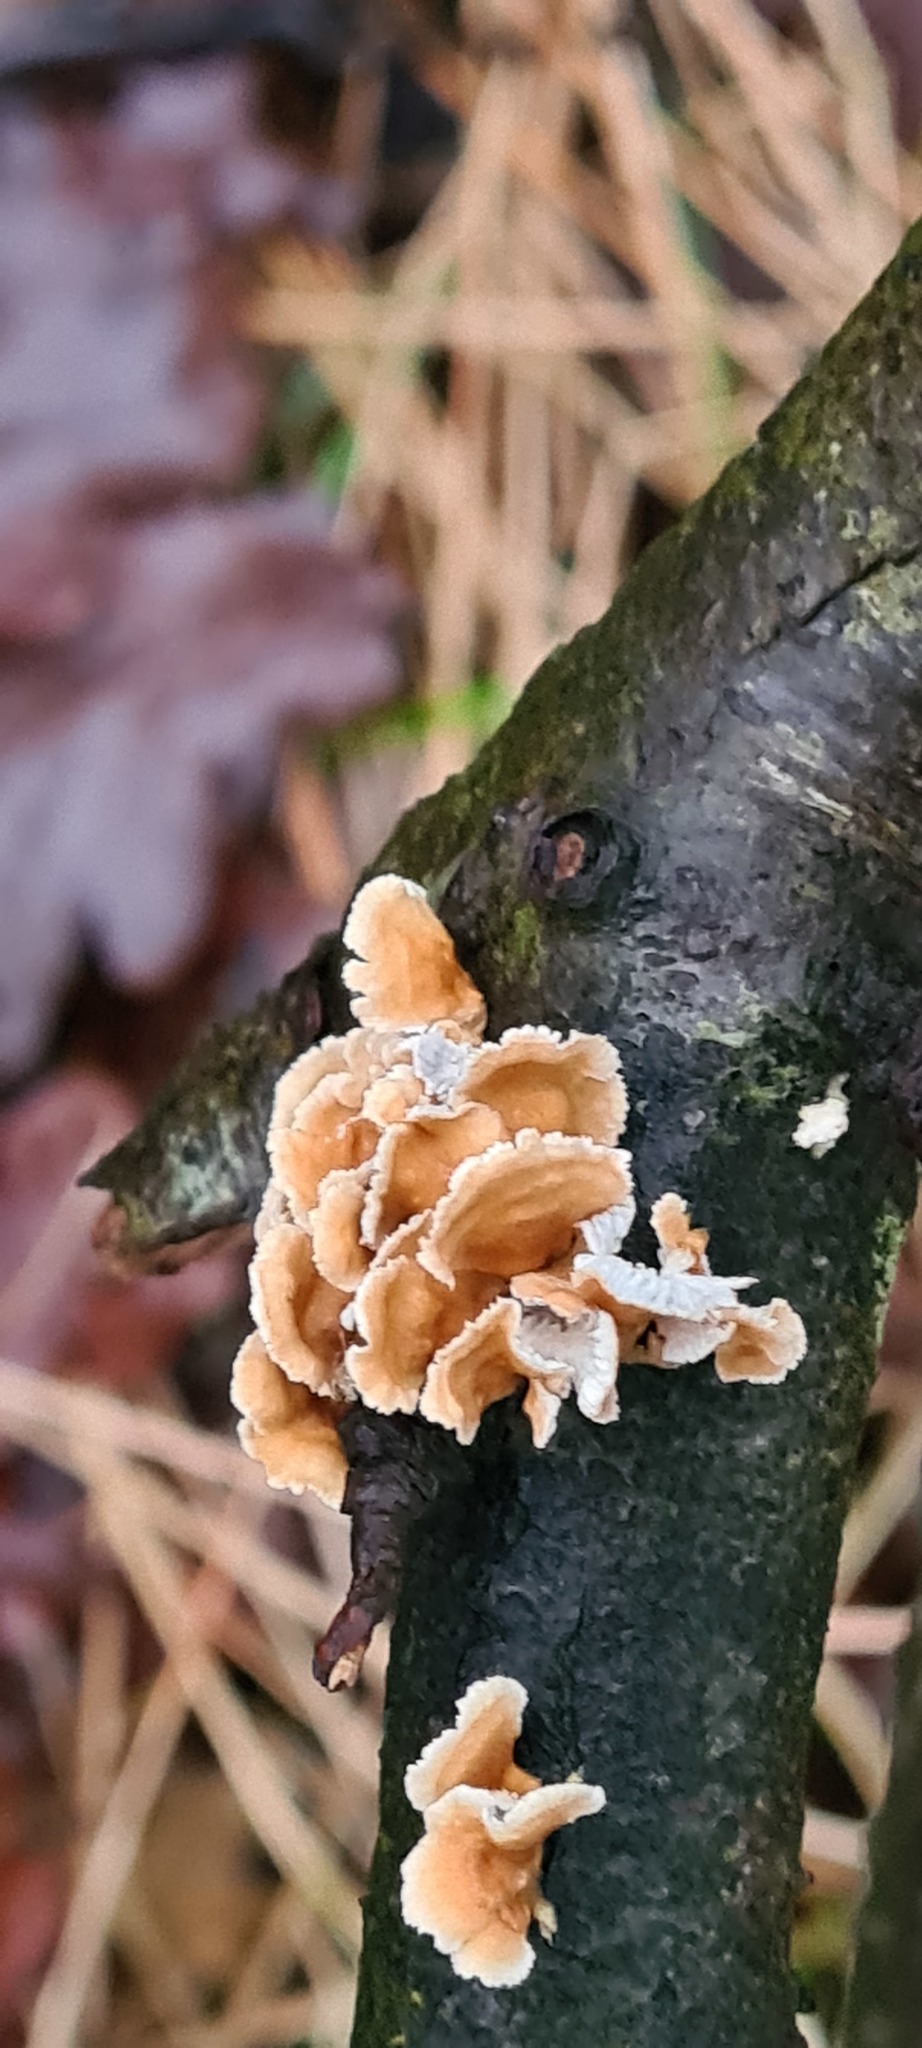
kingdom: Fungi
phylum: Basidiomycota
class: Agaricomycetes
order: Amylocorticiales
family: Amylocorticiaceae
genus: Plicaturopsis
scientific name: Plicaturopsis crispa
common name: Crimped gill
